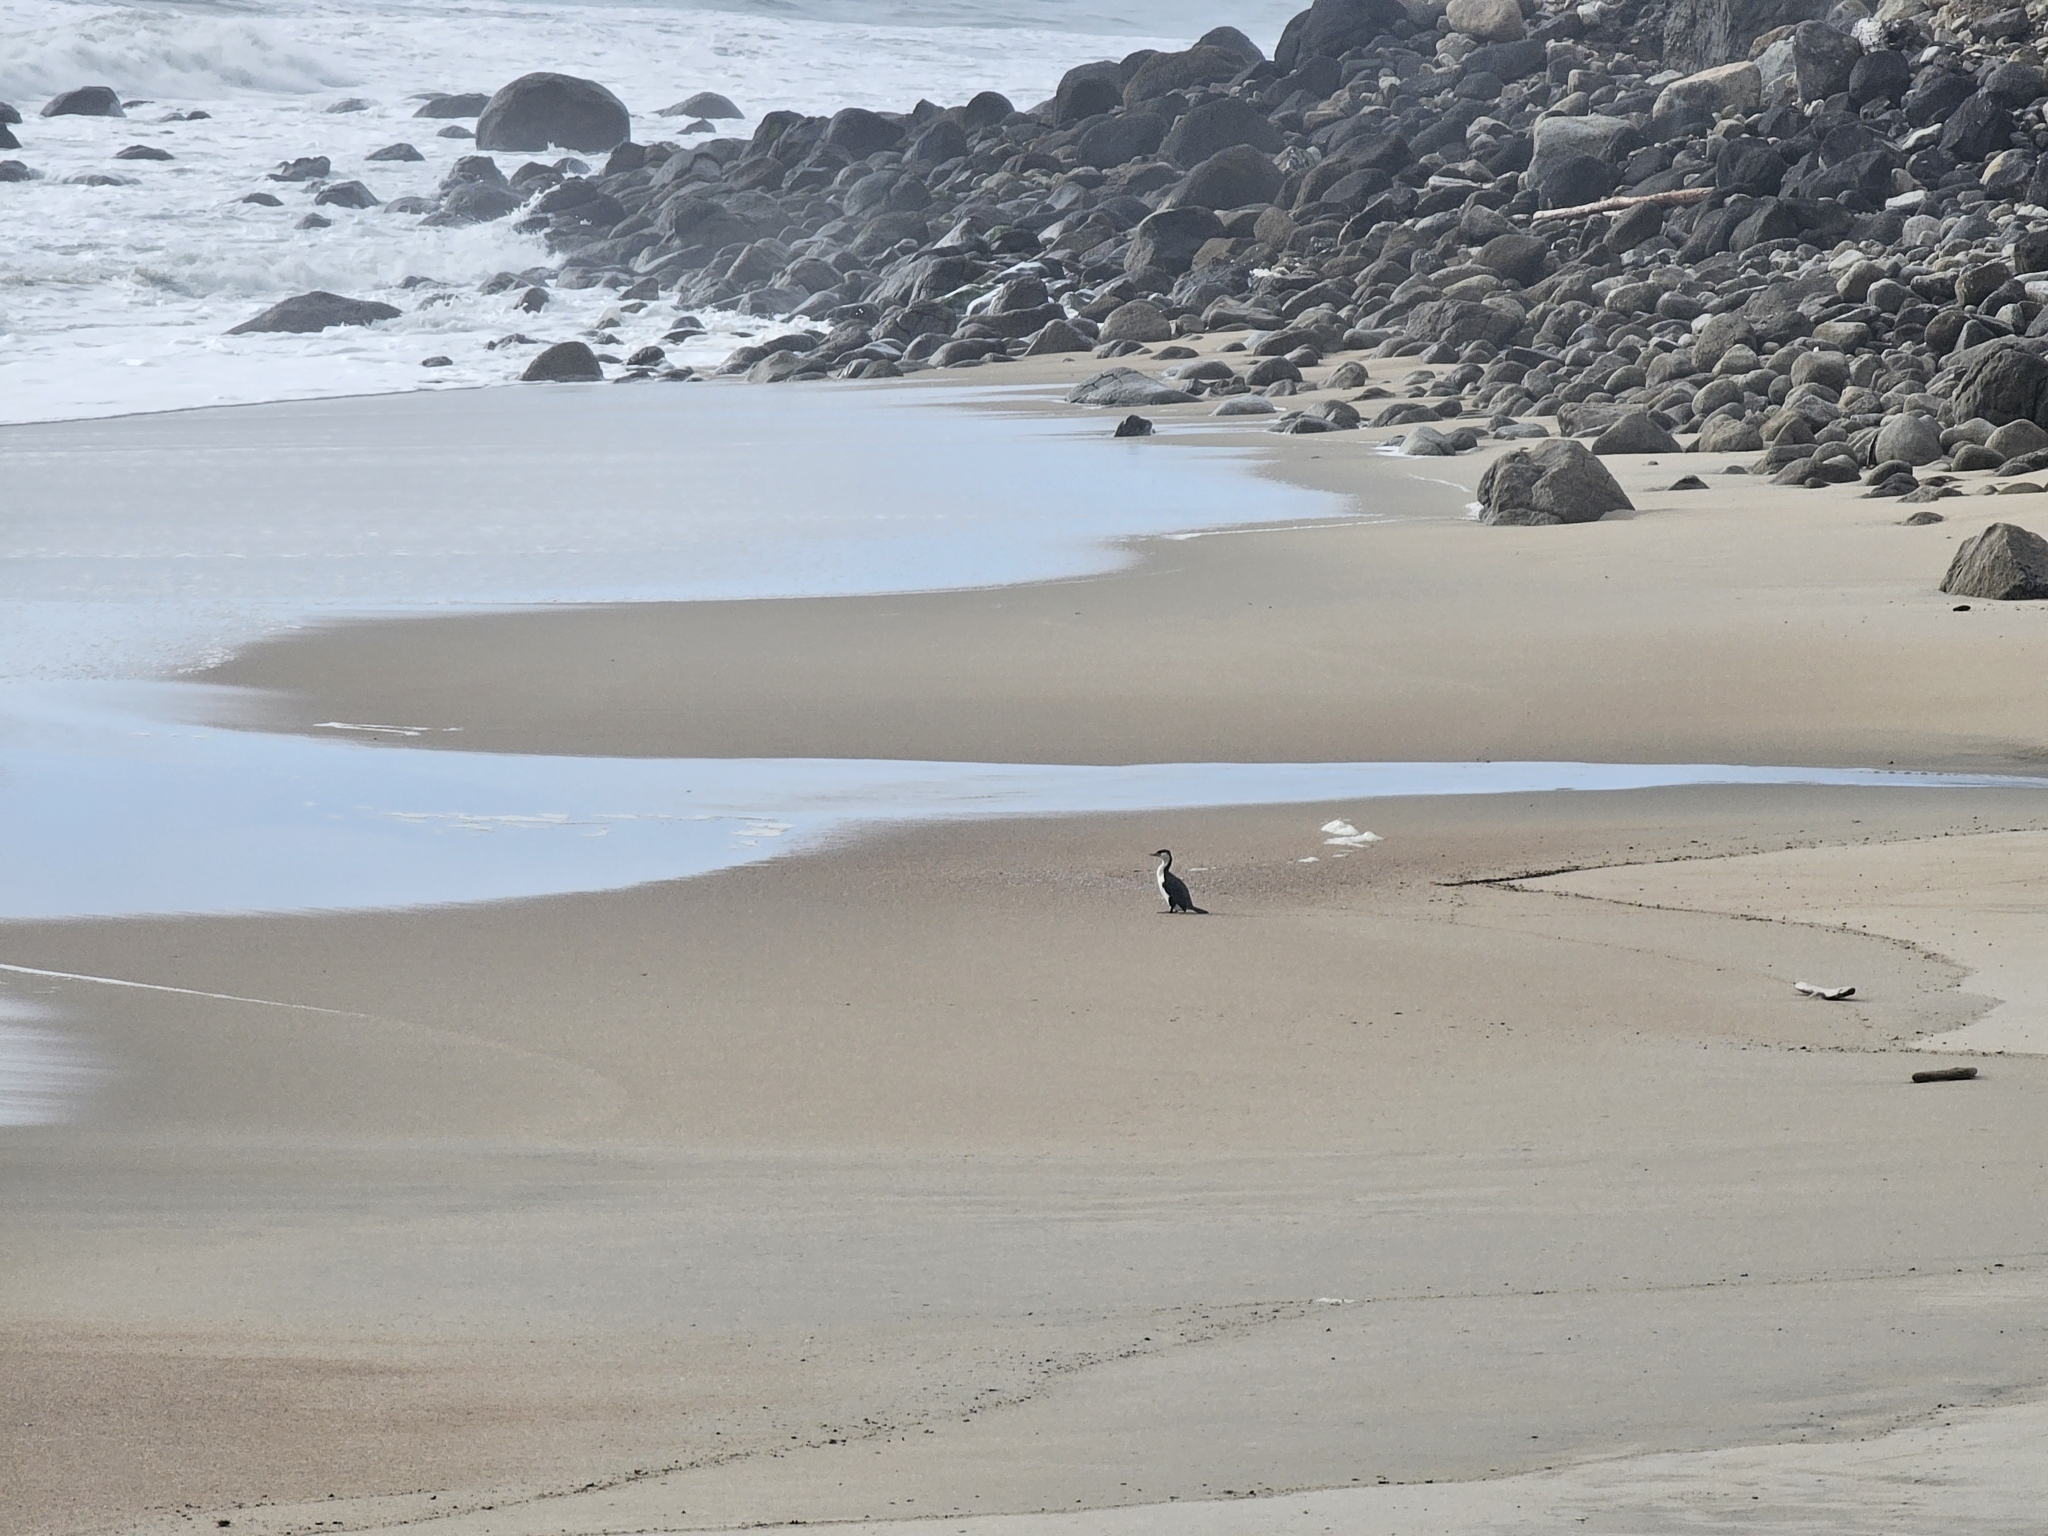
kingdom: Animalia
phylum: Chordata
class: Aves
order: Suliformes
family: Phalacrocoracidae
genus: Phalacrocorax
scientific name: Phalacrocorax varius
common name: Pied cormorant
